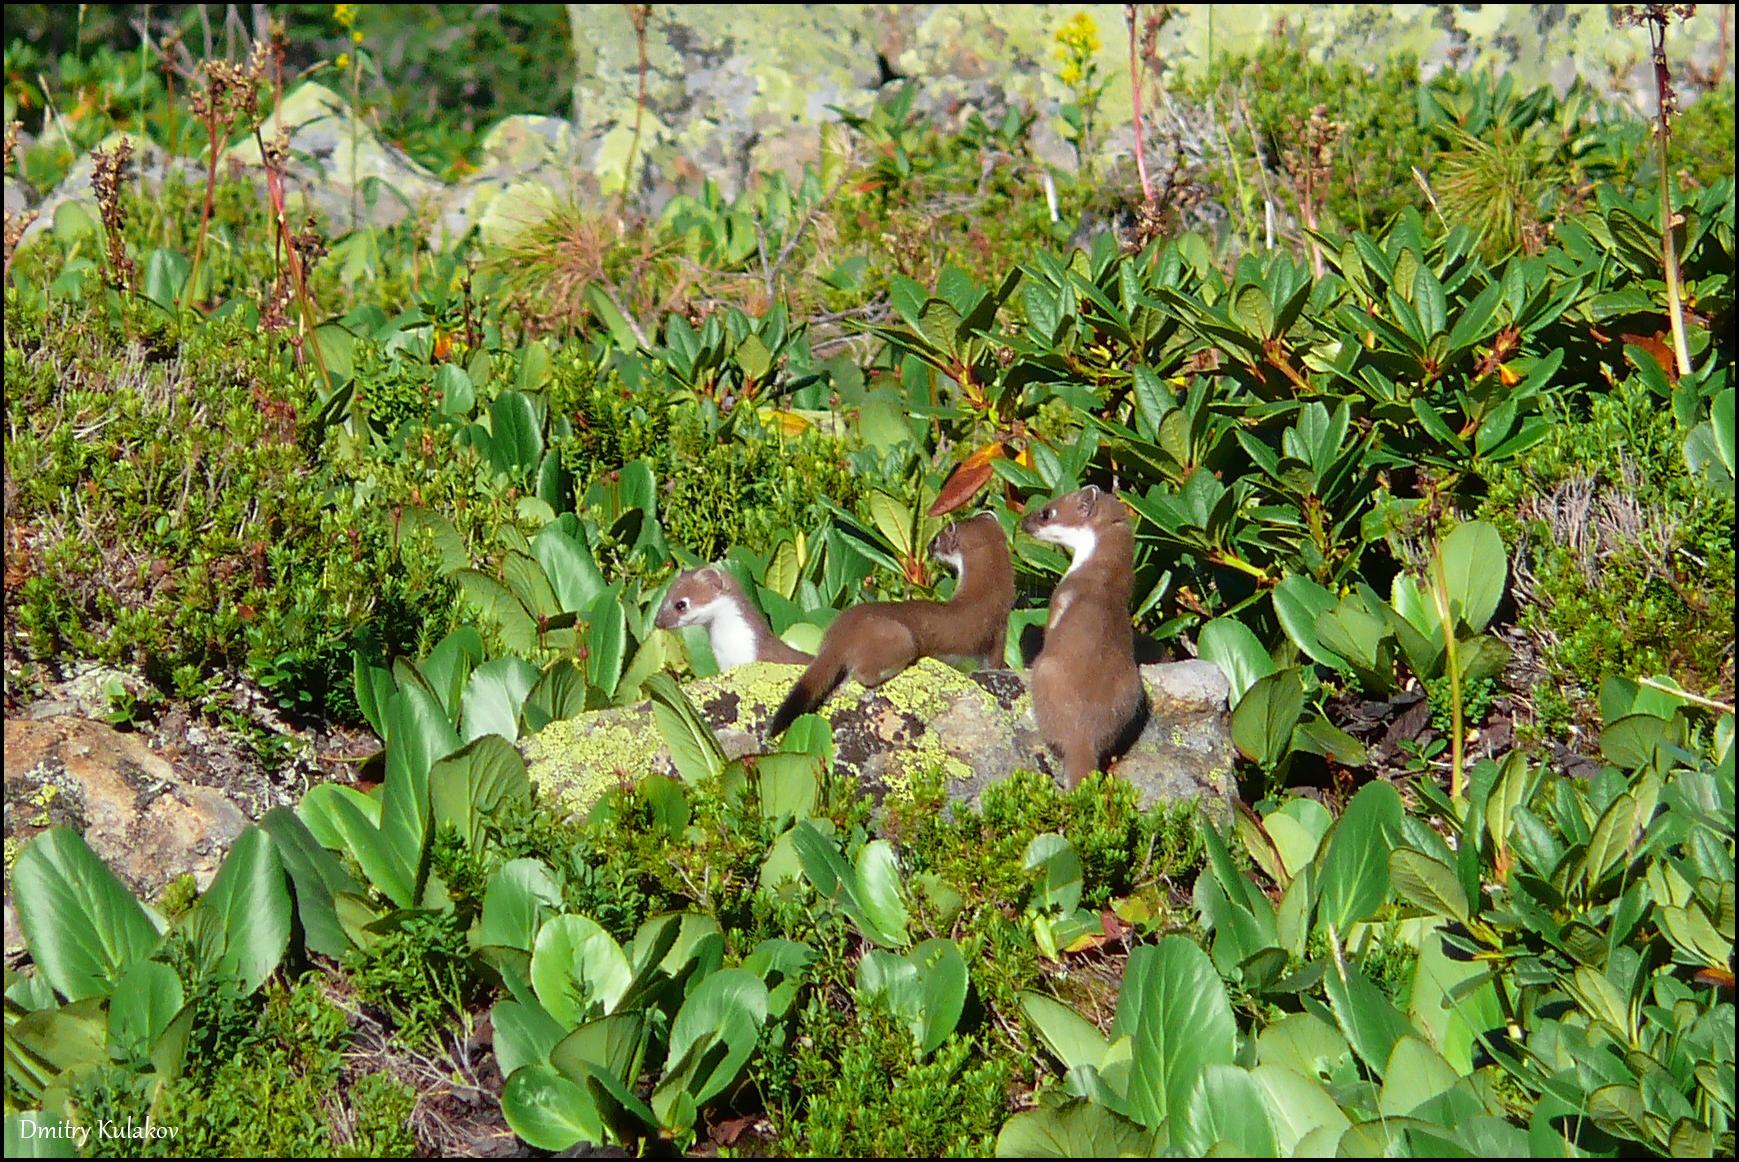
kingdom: Animalia
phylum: Chordata
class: Mammalia
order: Carnivora
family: Mustelidae
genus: Mustela
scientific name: Mustela erminea
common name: Stoat
